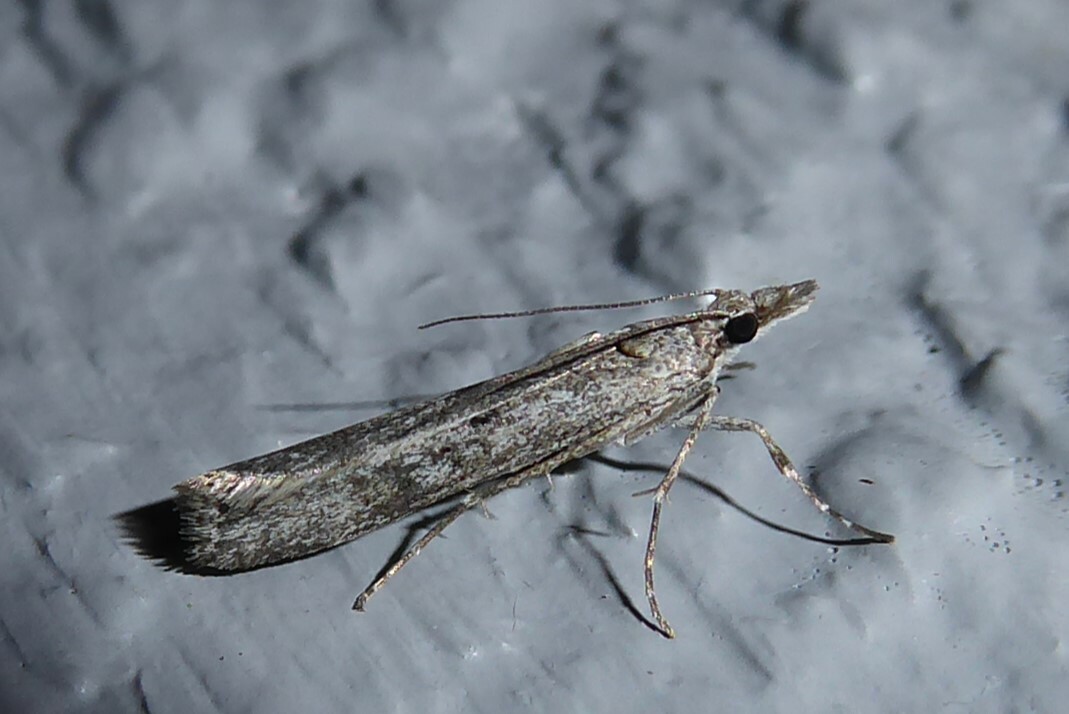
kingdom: Animalia
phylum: Arthropoda
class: Insecta
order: Lepidoptera
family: Crambidae
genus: Eudonia
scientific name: Eudonia leptalea
